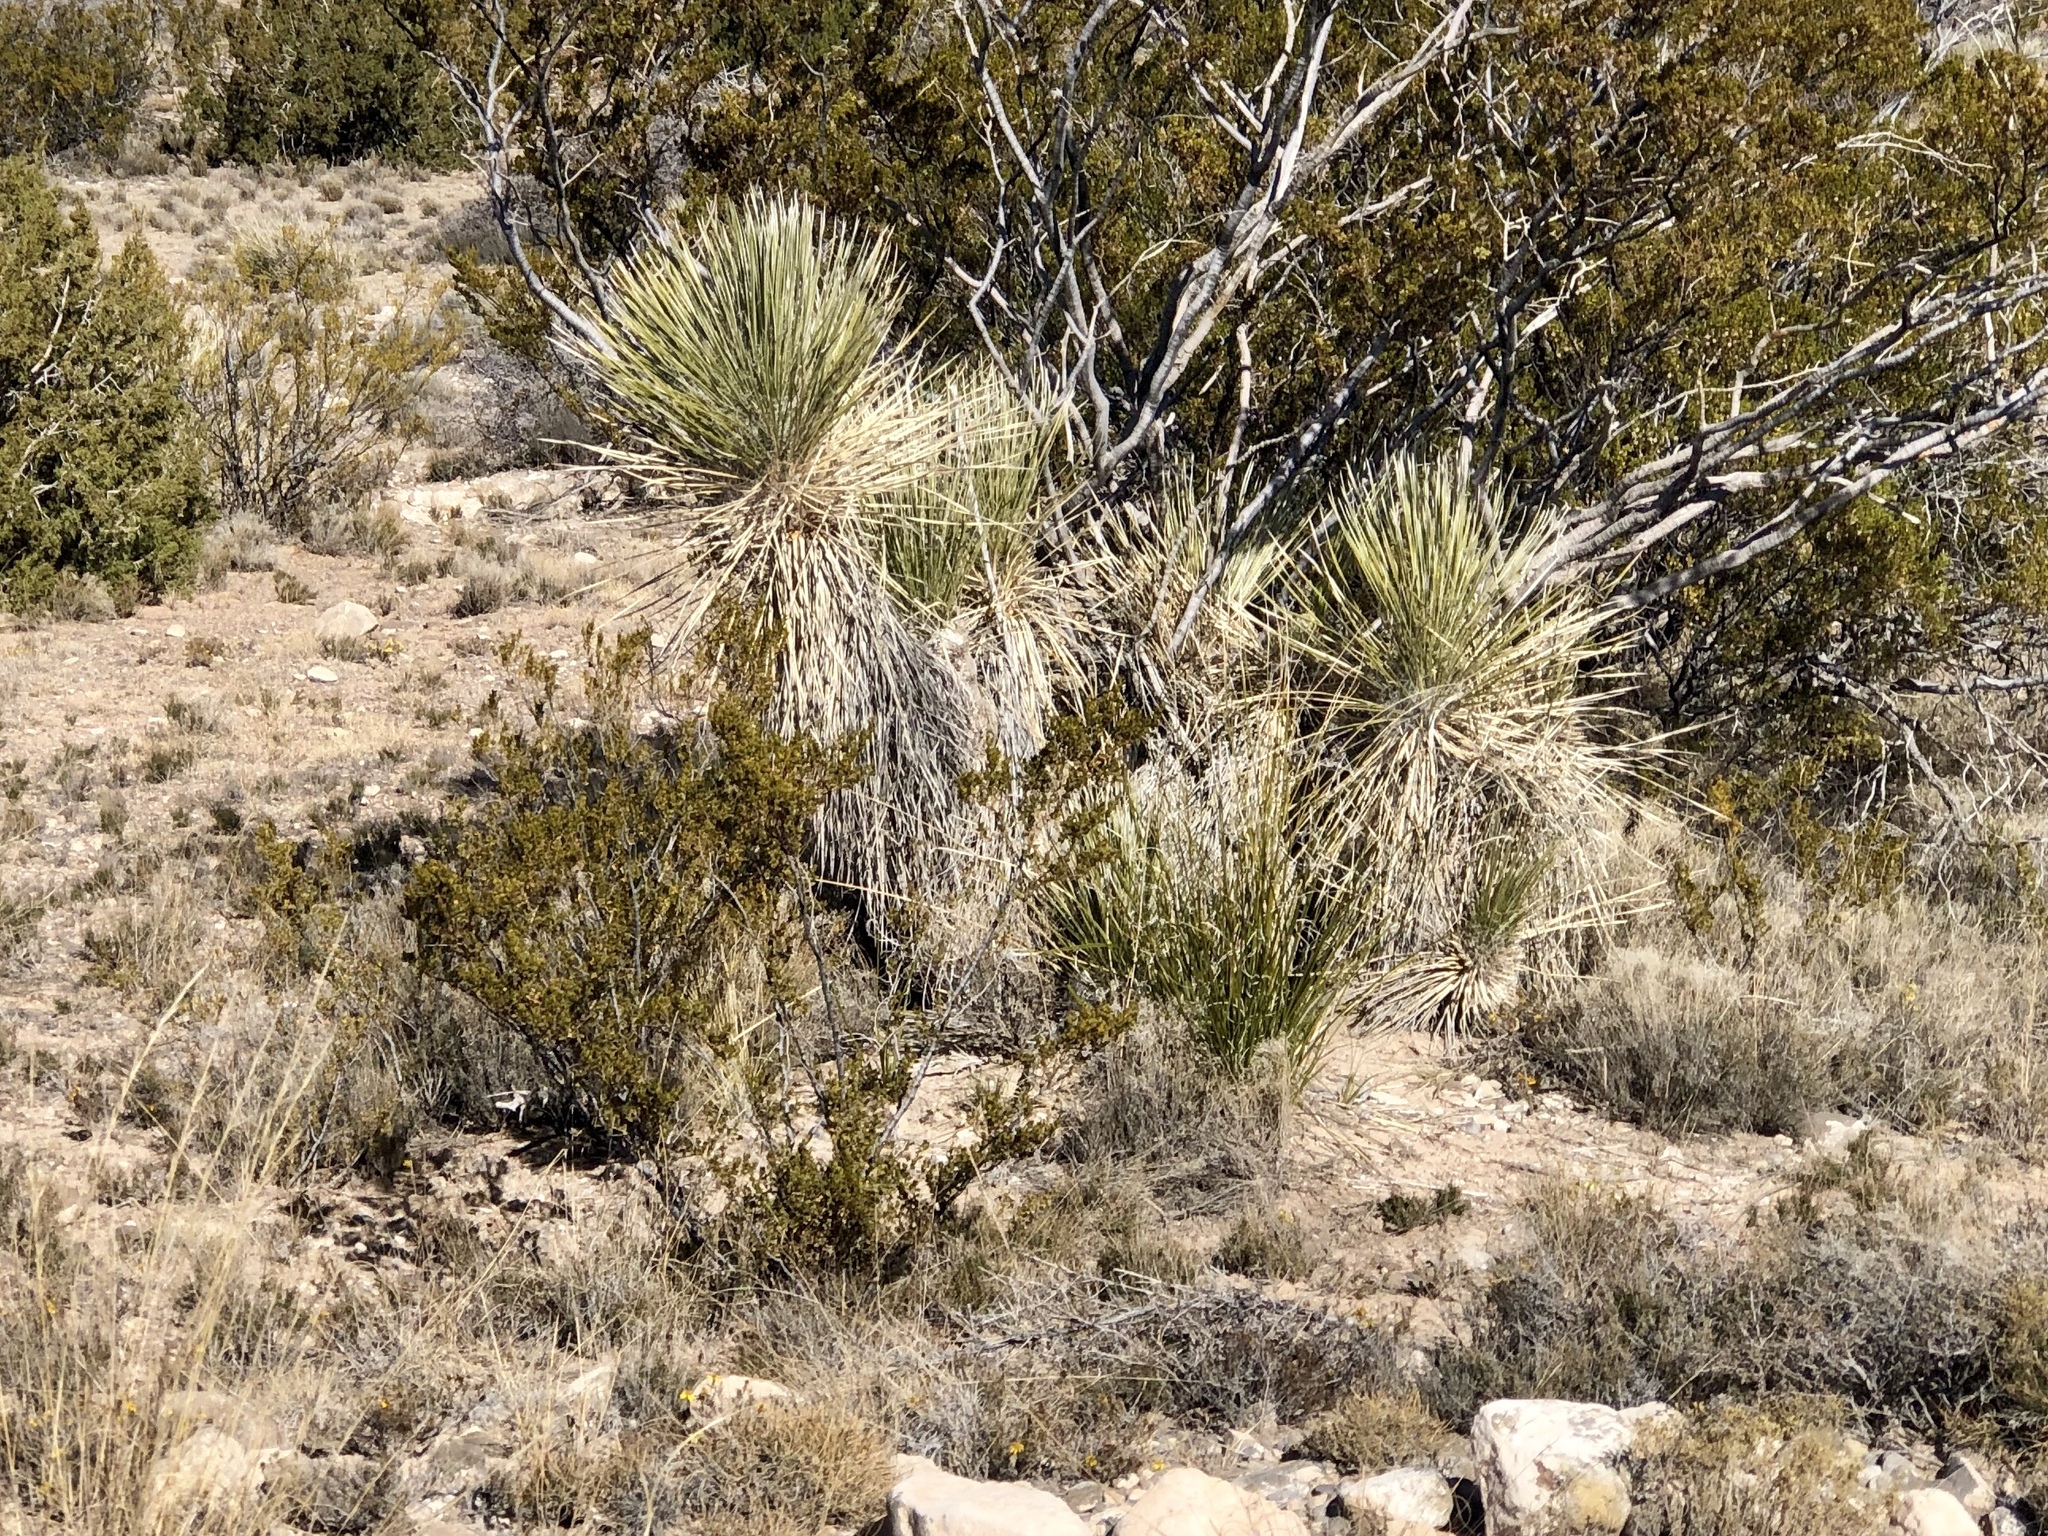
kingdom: Plantae
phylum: Tracheophyta
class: Liliopsida
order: Asparagales
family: Asparagaceae
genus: Yucca
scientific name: Yucca elata
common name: Palmella
